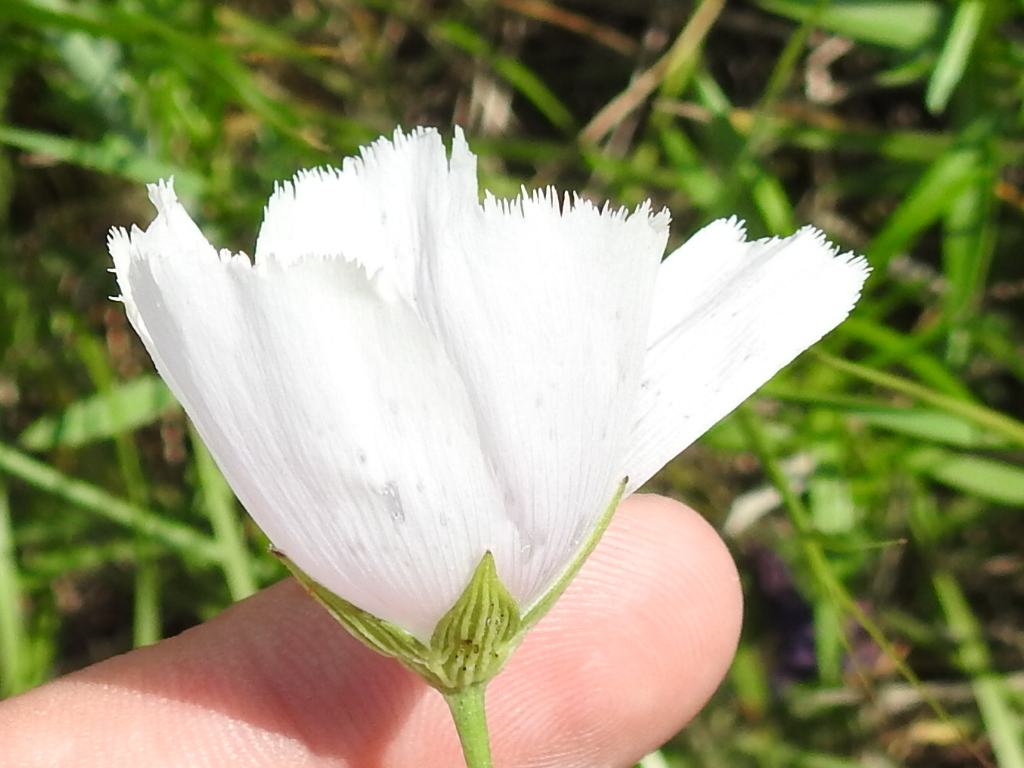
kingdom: Plantae
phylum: Tracheophyta
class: Magnoliopsida
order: Malvales
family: Malvaceae
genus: Callirhoe
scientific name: Callirhoe pedata
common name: Finger poppy-mallow
